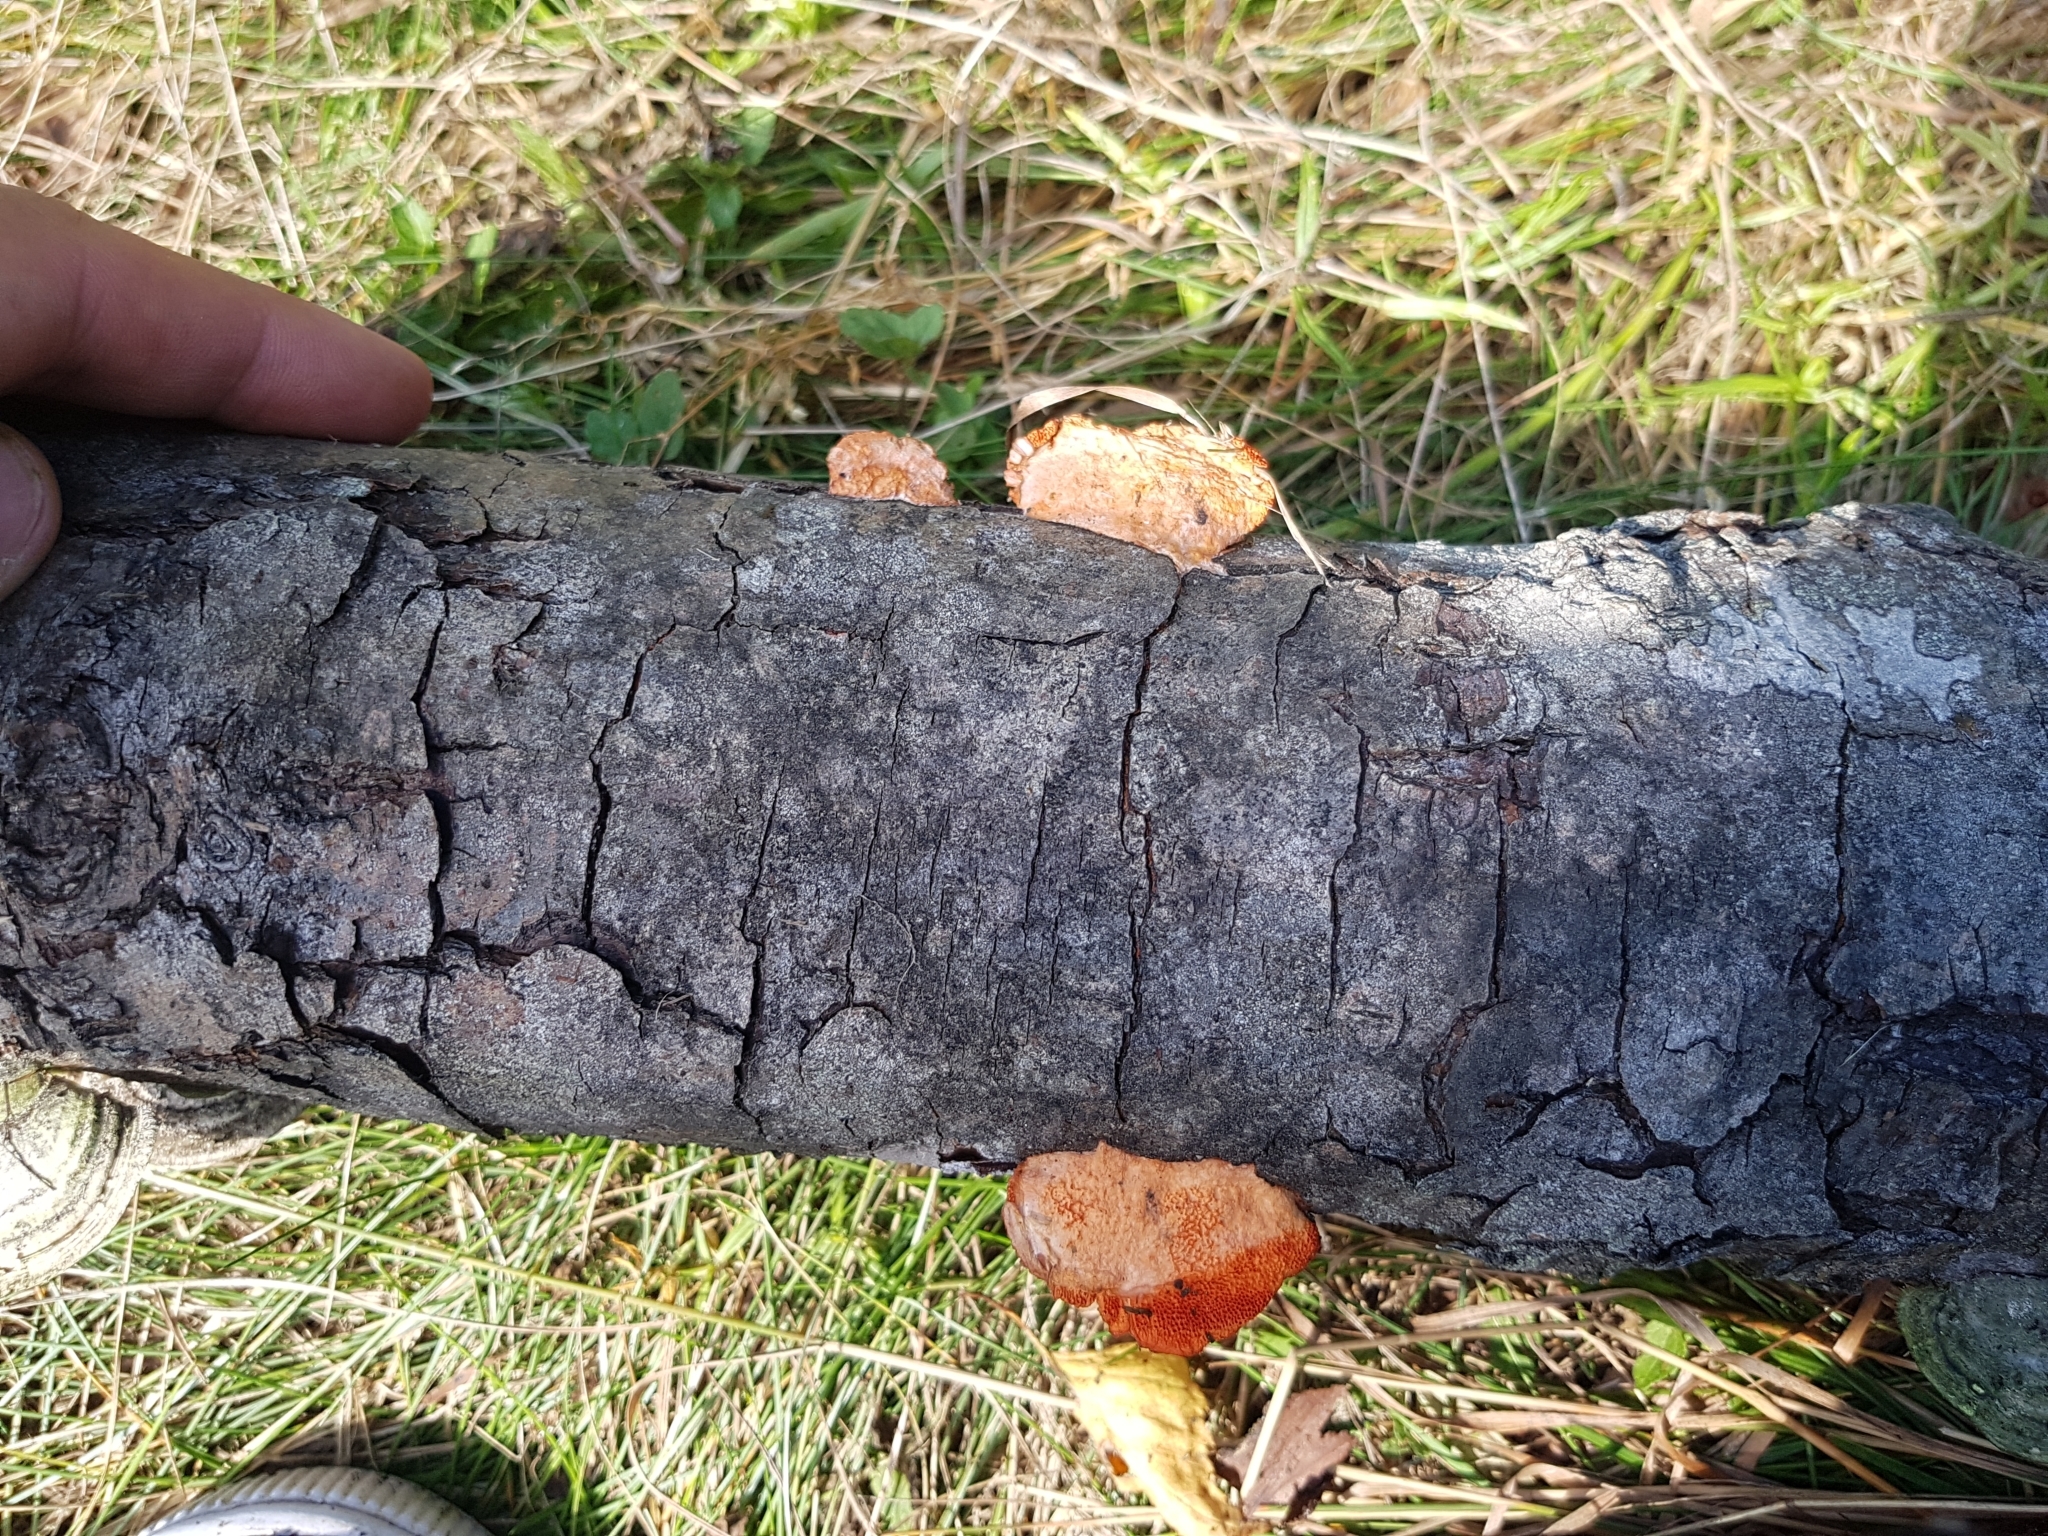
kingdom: Fungi
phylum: Basidiomycota
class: Agaricomycetes
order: Polyporales
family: Polyporaceae
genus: Trametes
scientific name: Trametes cinnabarina
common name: Northern cinnabar polypore
